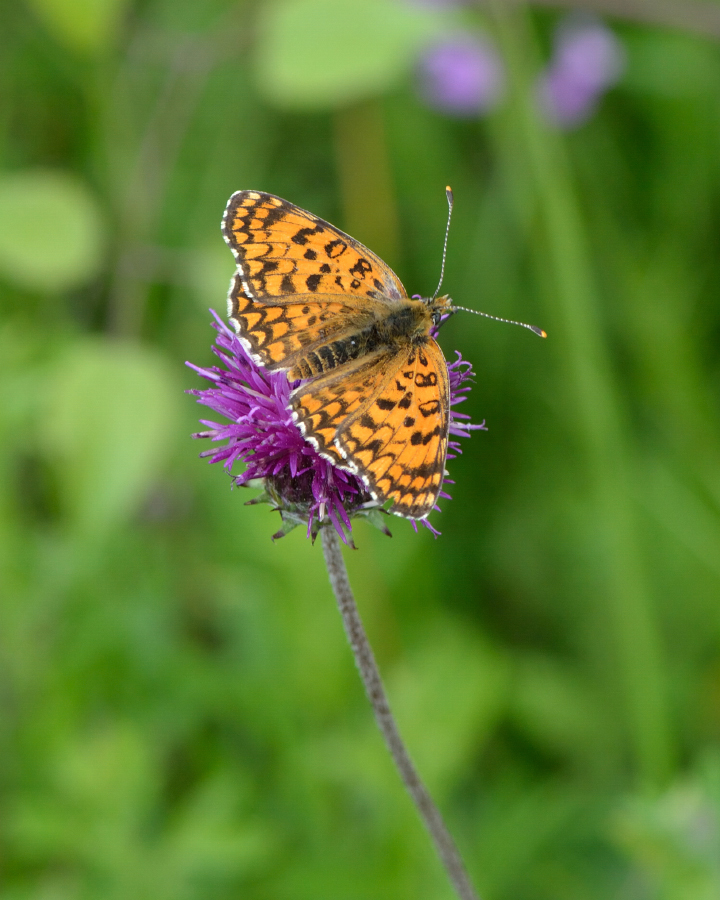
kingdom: Animalia
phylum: Arthropoda
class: Insecta
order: Lepidoptera
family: Nymphalidae
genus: Melitaea
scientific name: Melitaea phoebe
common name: Knapweed fritillary
